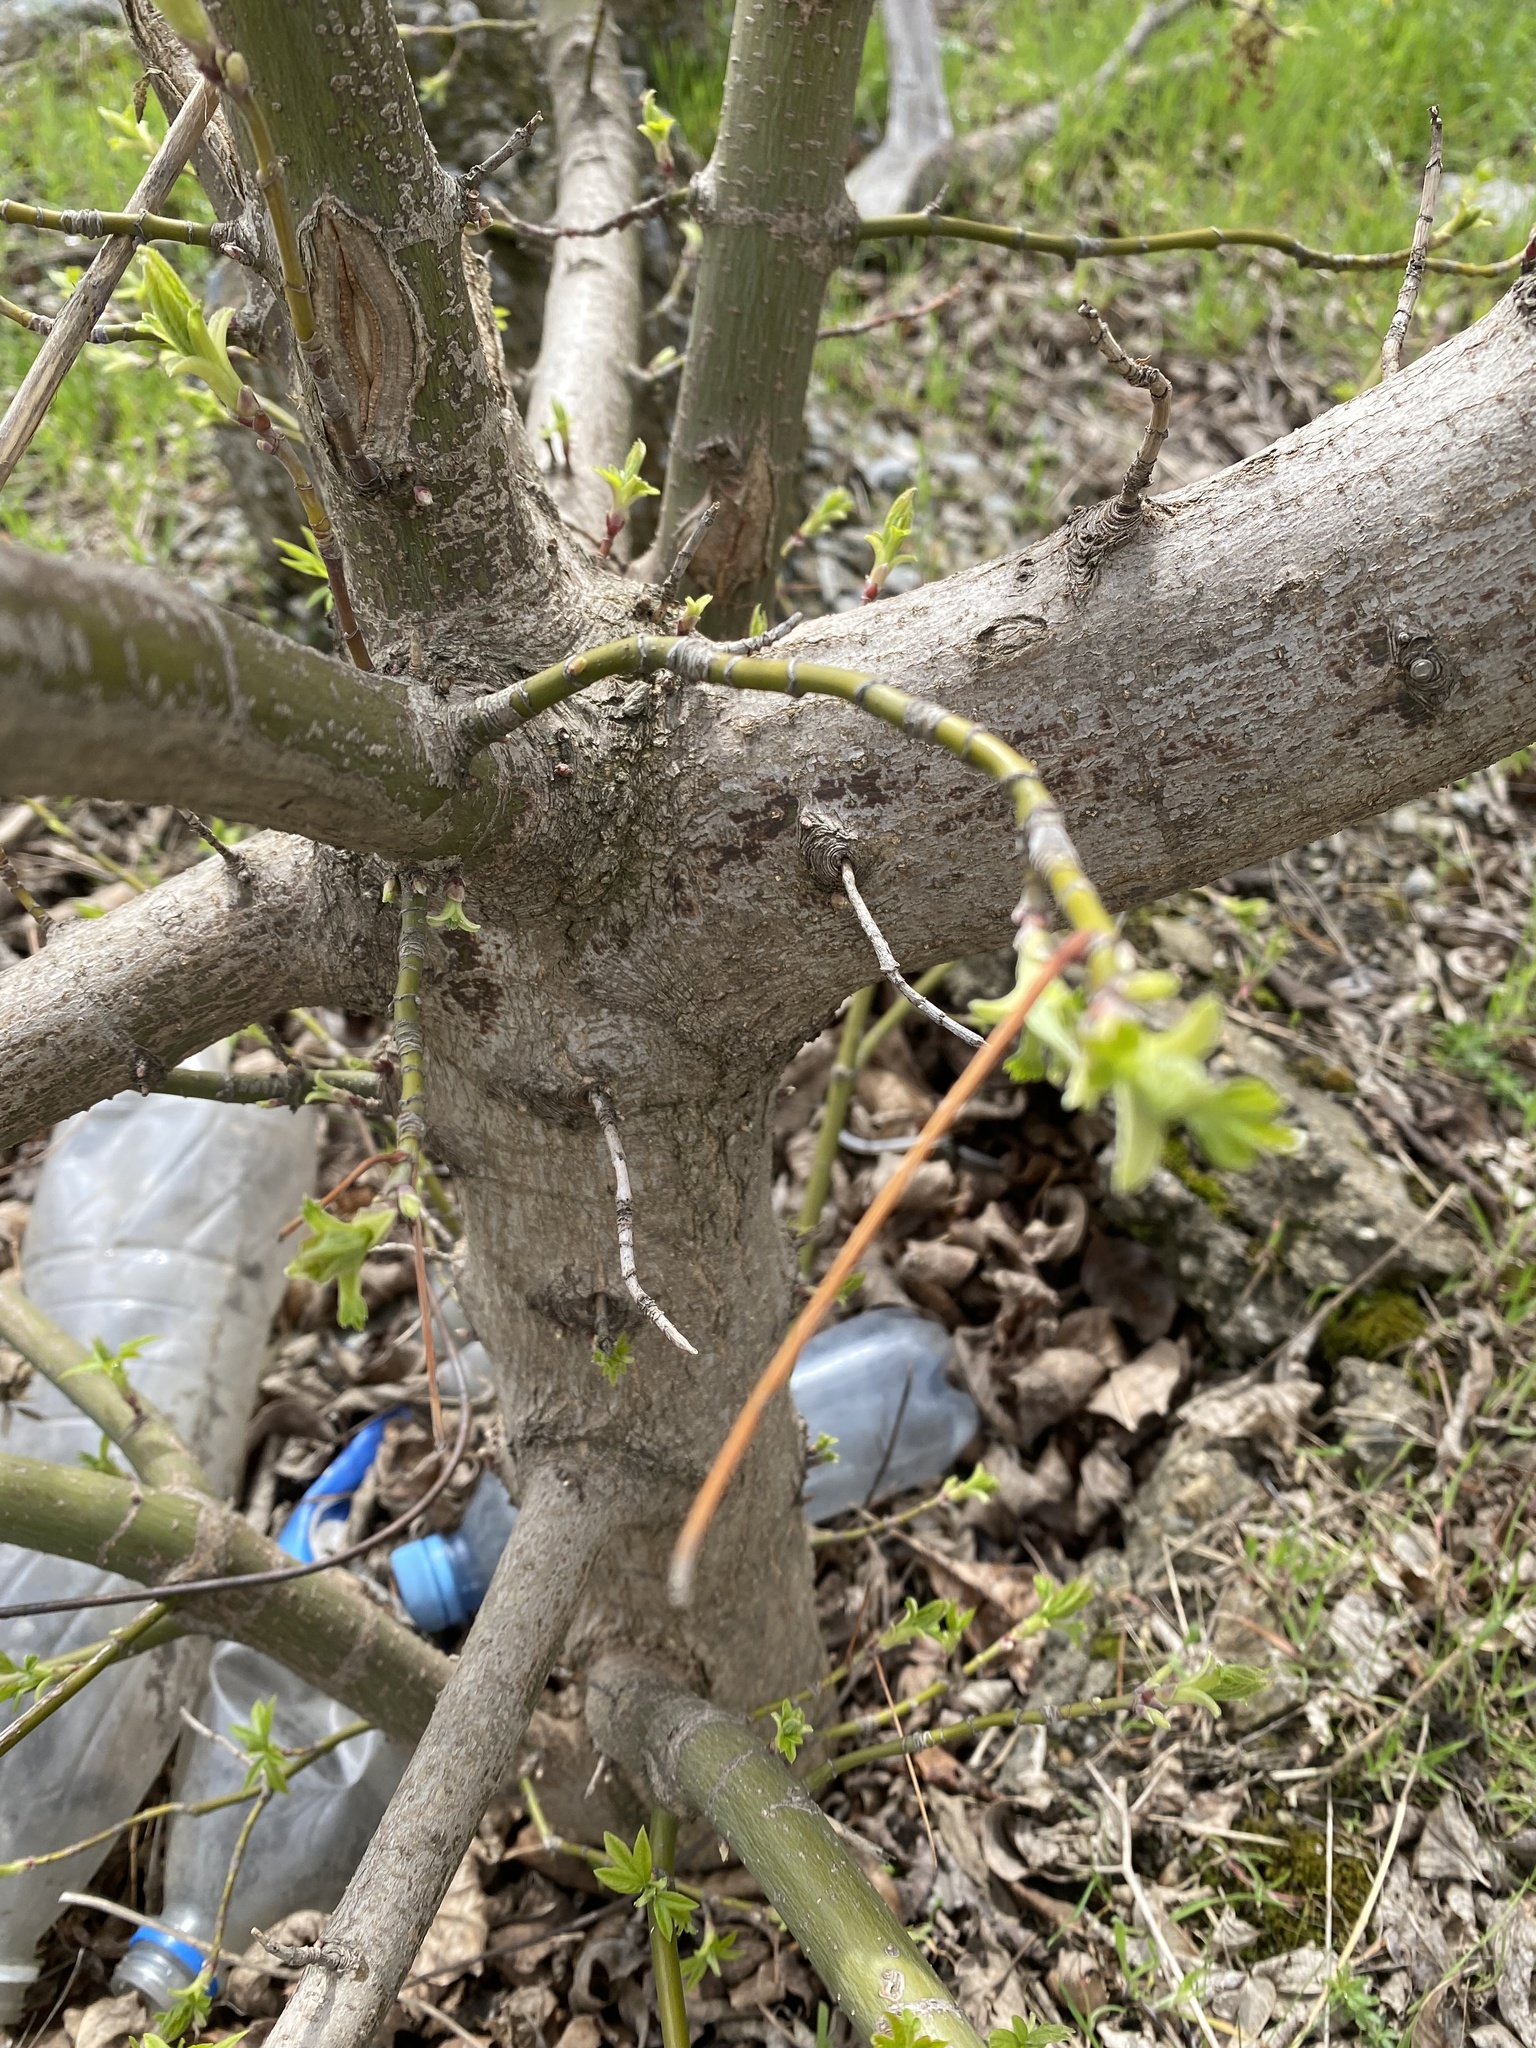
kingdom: Plantae
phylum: Tracheophyta
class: Magnoliopsida
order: Sapindales
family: Sapindaceae
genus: Acer
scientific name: Acer negundo
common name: Ashleaf maple
